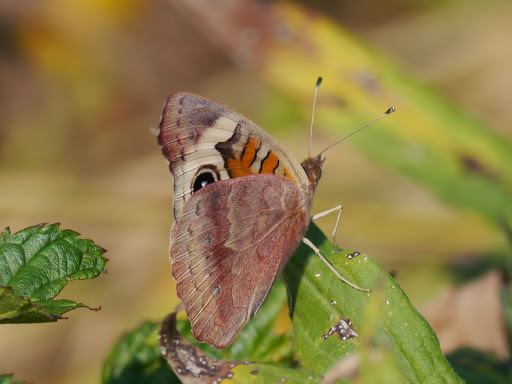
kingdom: Animalia
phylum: Arthropoda
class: Insecta
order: Lepidoptera
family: Nymphalidae
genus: Junonia
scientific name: Junonia coenia
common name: Common buckeye
